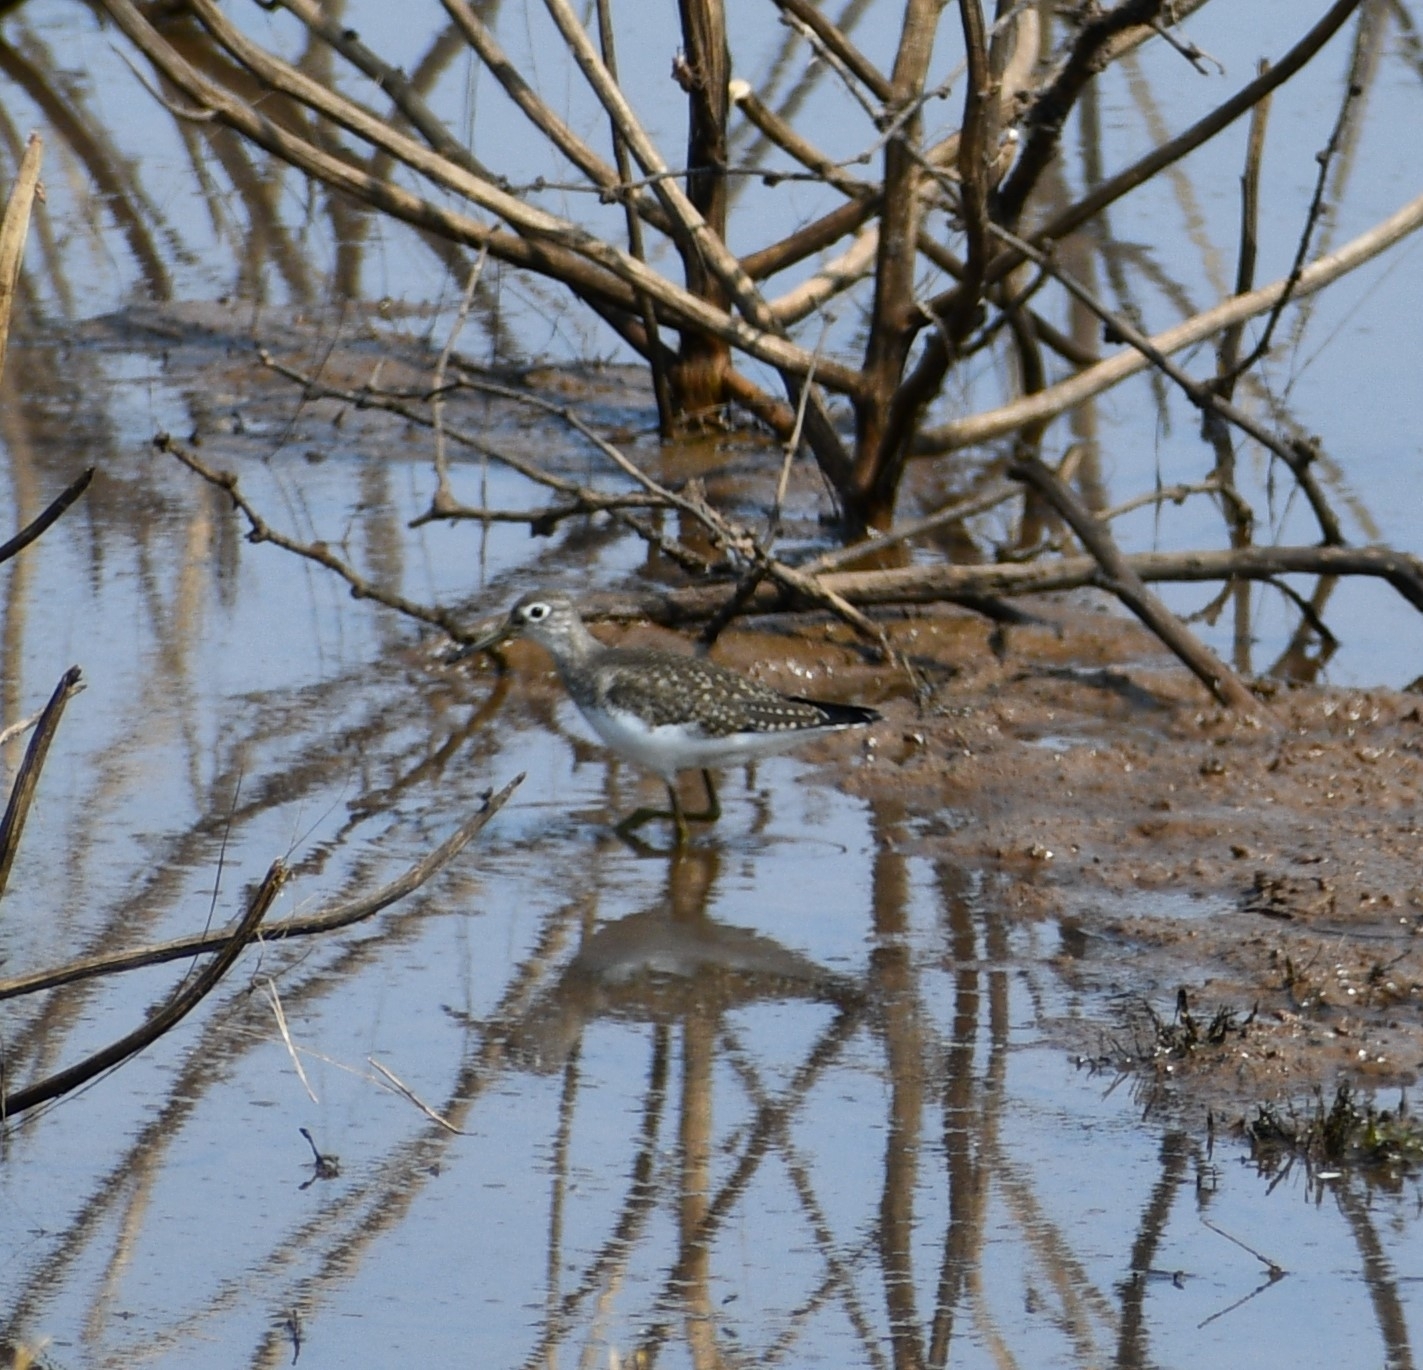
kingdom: Animalia
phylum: Chordata
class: Aves
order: Charadriiformes
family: Scolopacidae
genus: Tringa
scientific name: Tringa solitaria
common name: Solitary sandpiper
